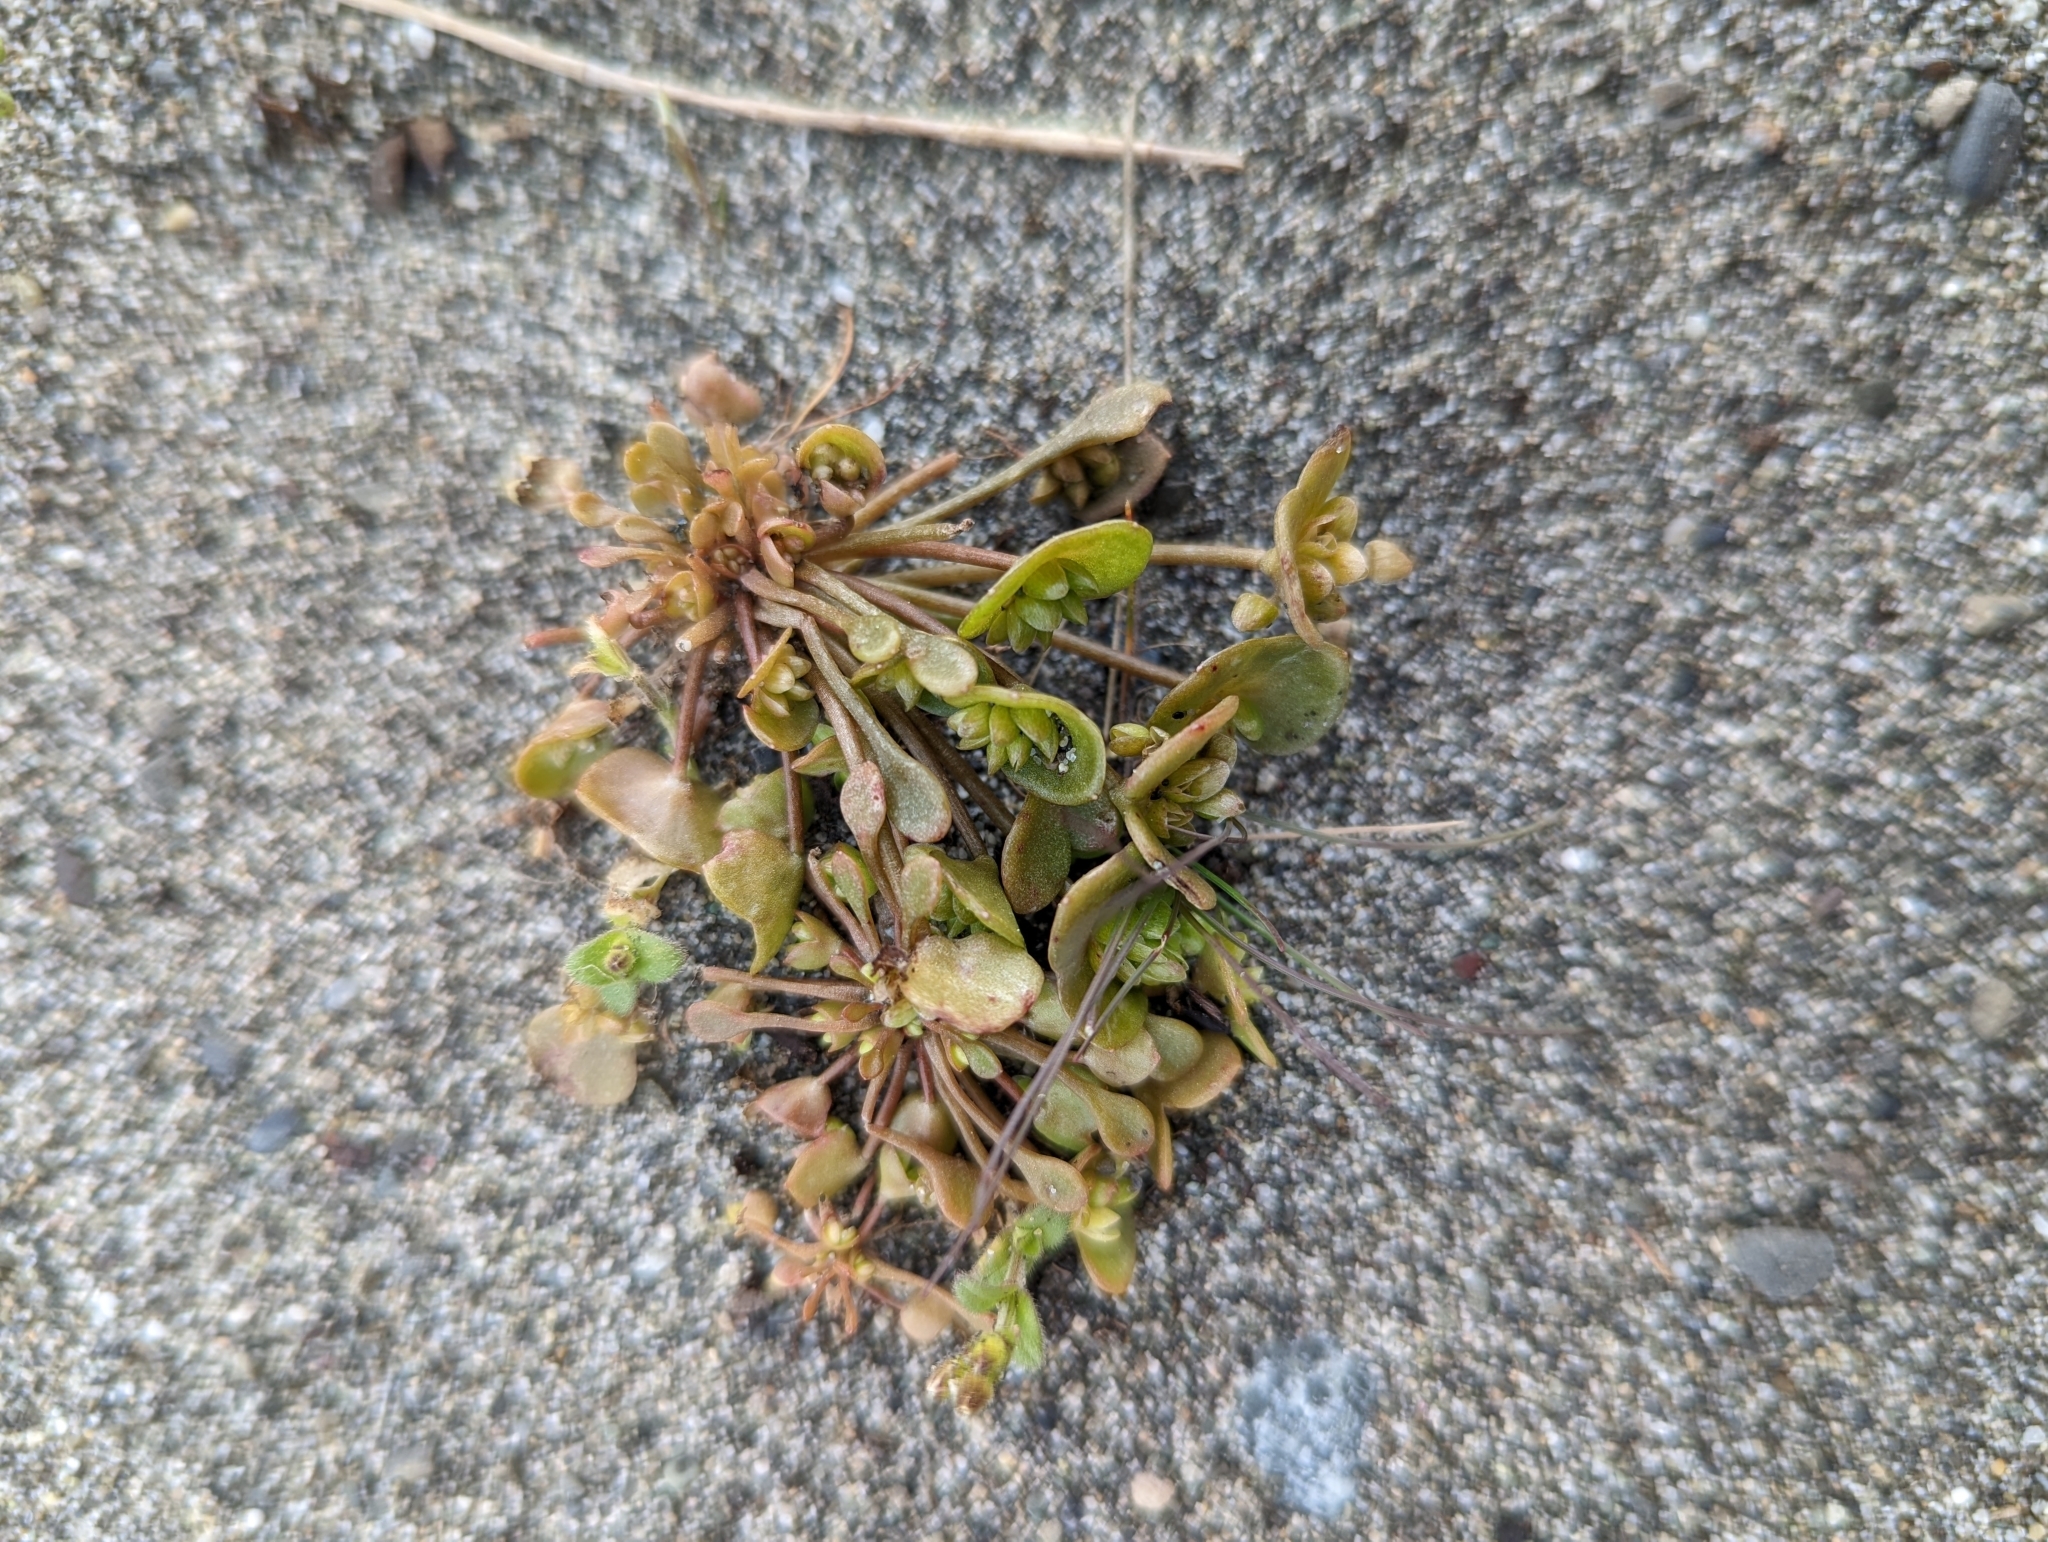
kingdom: Plantae
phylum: Tracheophyta
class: Magnoliopsida
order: Caryophyllales
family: Montiaceae
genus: Claytonia
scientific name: Claytonia rubra
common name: Erubescent miner's-lettuce
